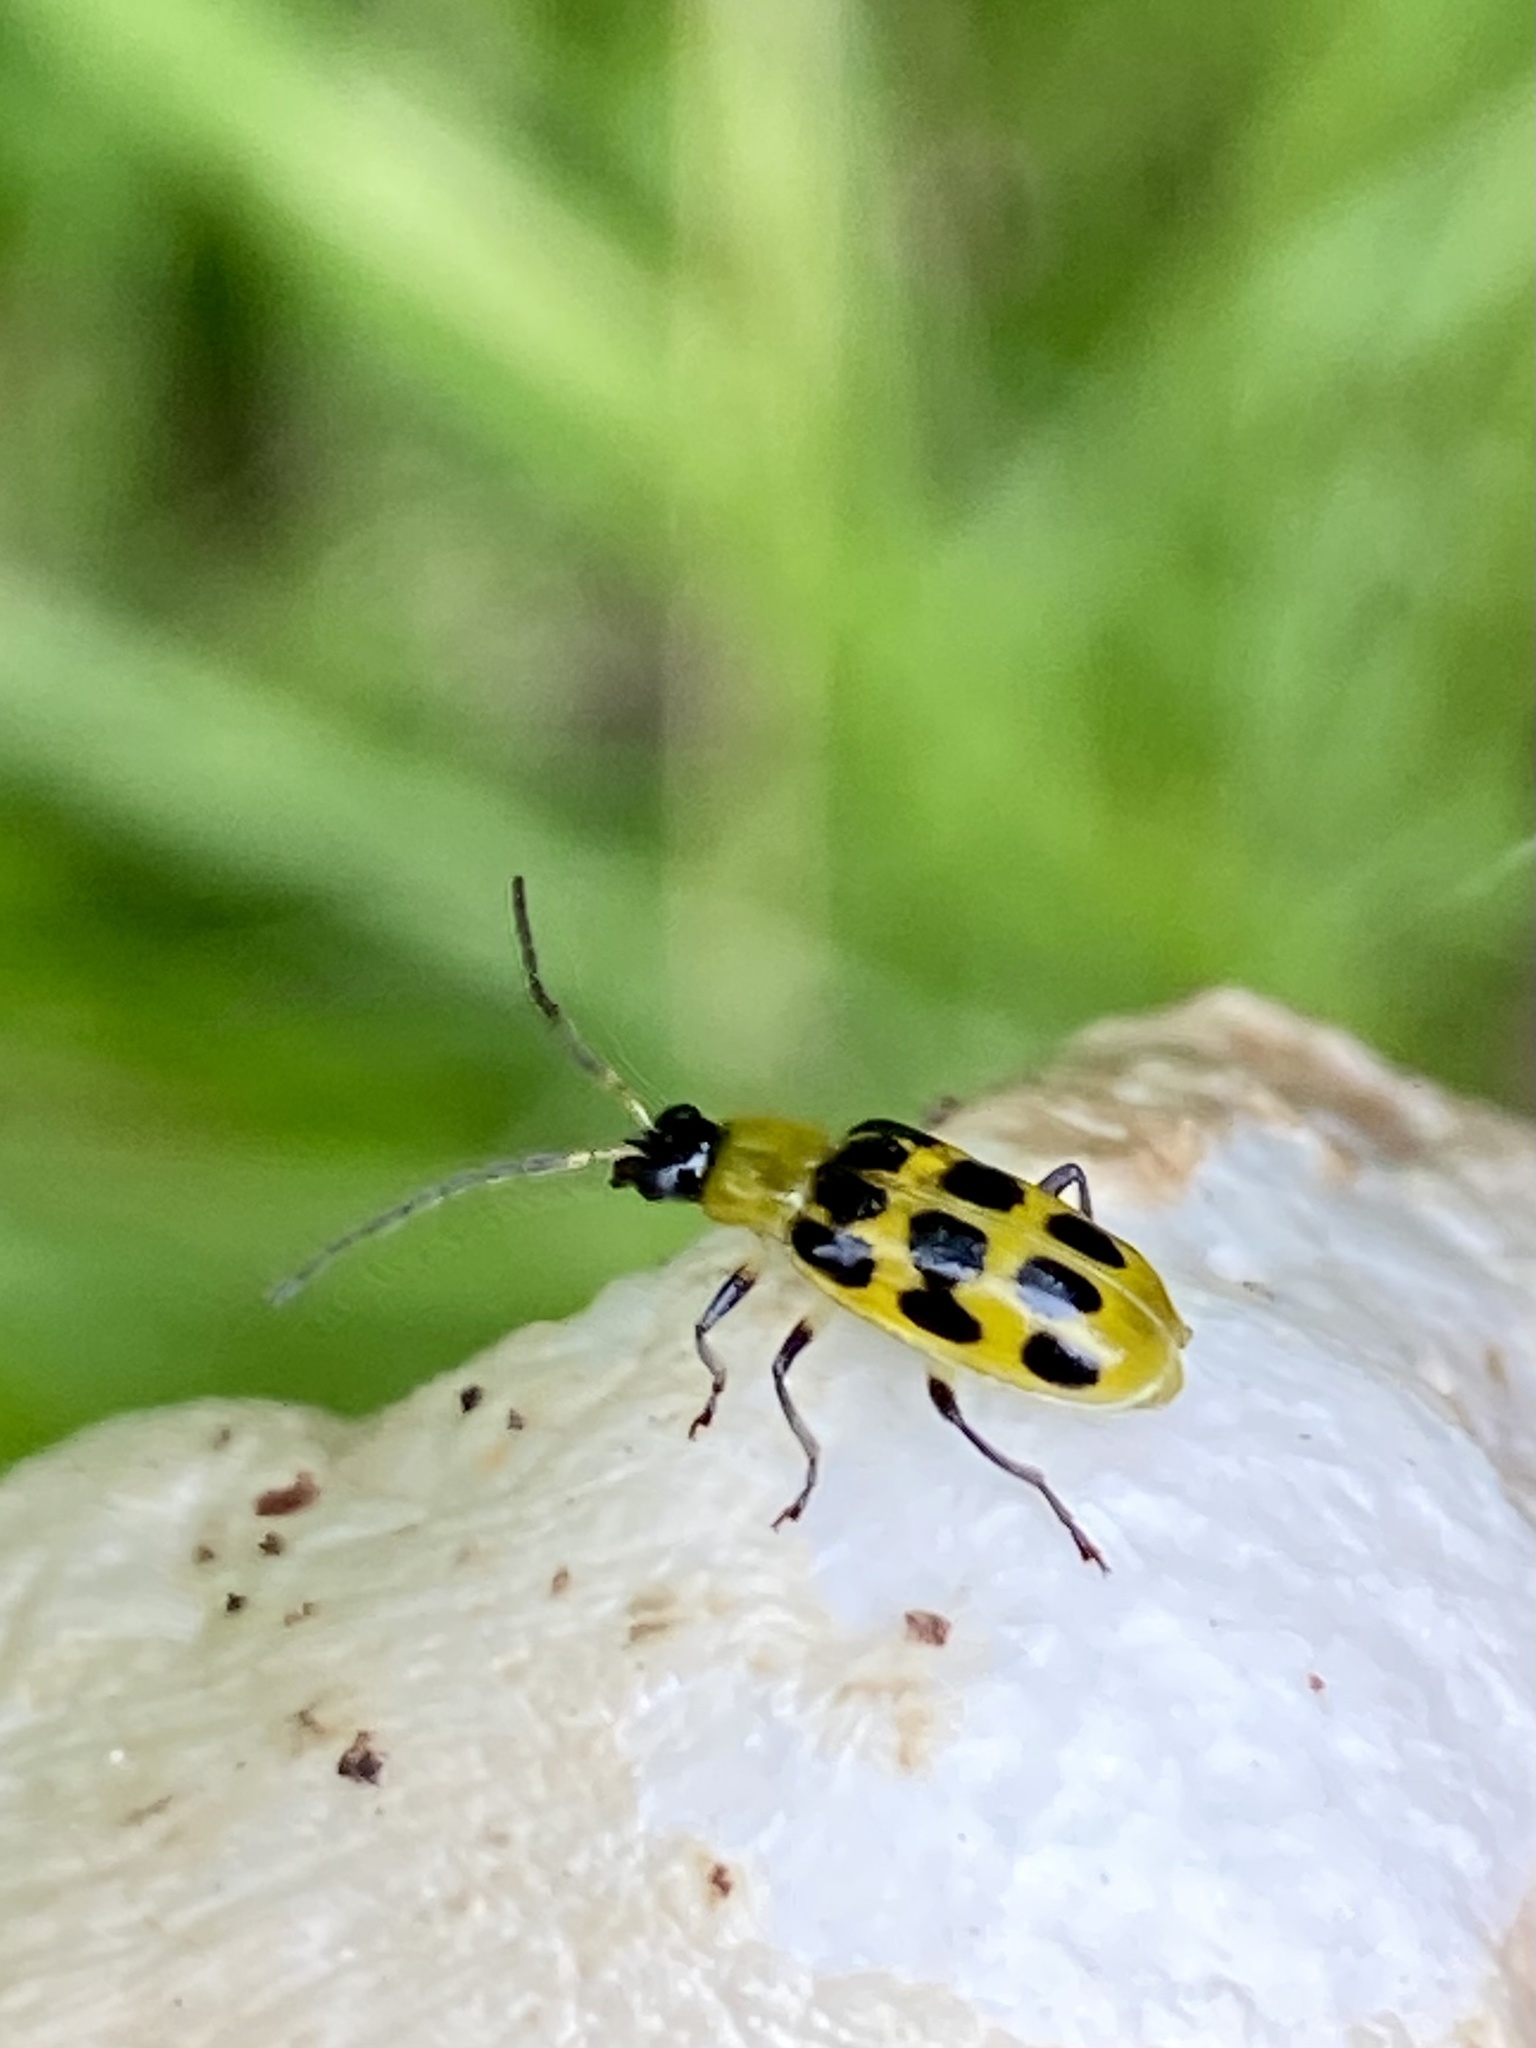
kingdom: Animalia
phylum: Arthropoda
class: Insecta
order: Coleoptera
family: Chrysomelidae
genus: Diabrotica
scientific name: Diabrotica undecimpunctata
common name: Spotted cucumber beetle
